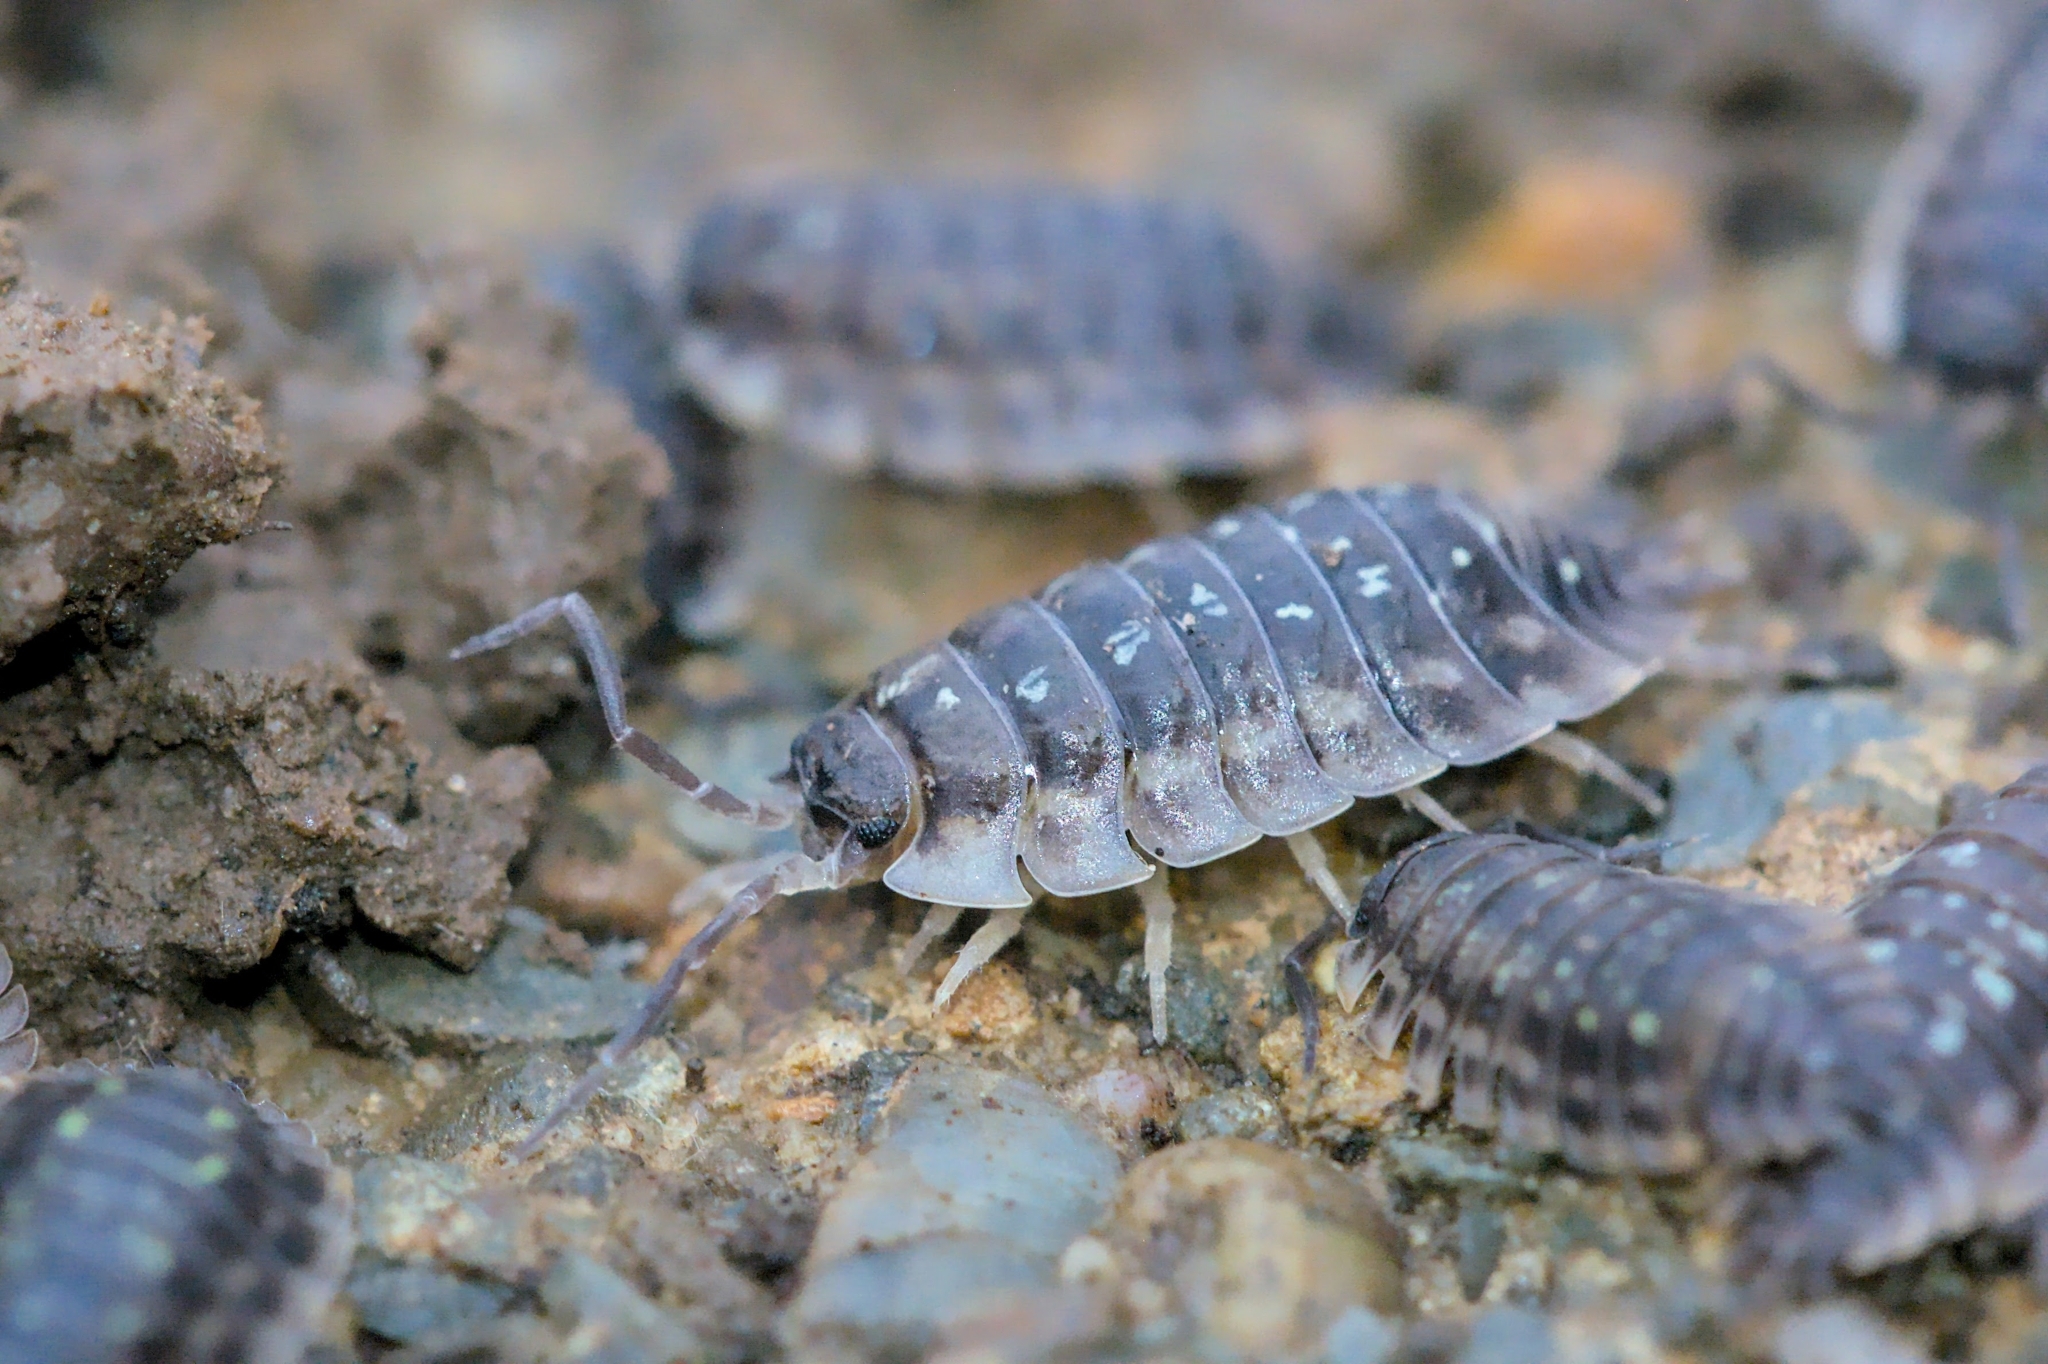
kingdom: Animalia
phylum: Arthropoda
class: Malacostraca
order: Isopoda
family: Oniscidae
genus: Oniscus
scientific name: Oniscus asellus
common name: Common shiny woodlouse
